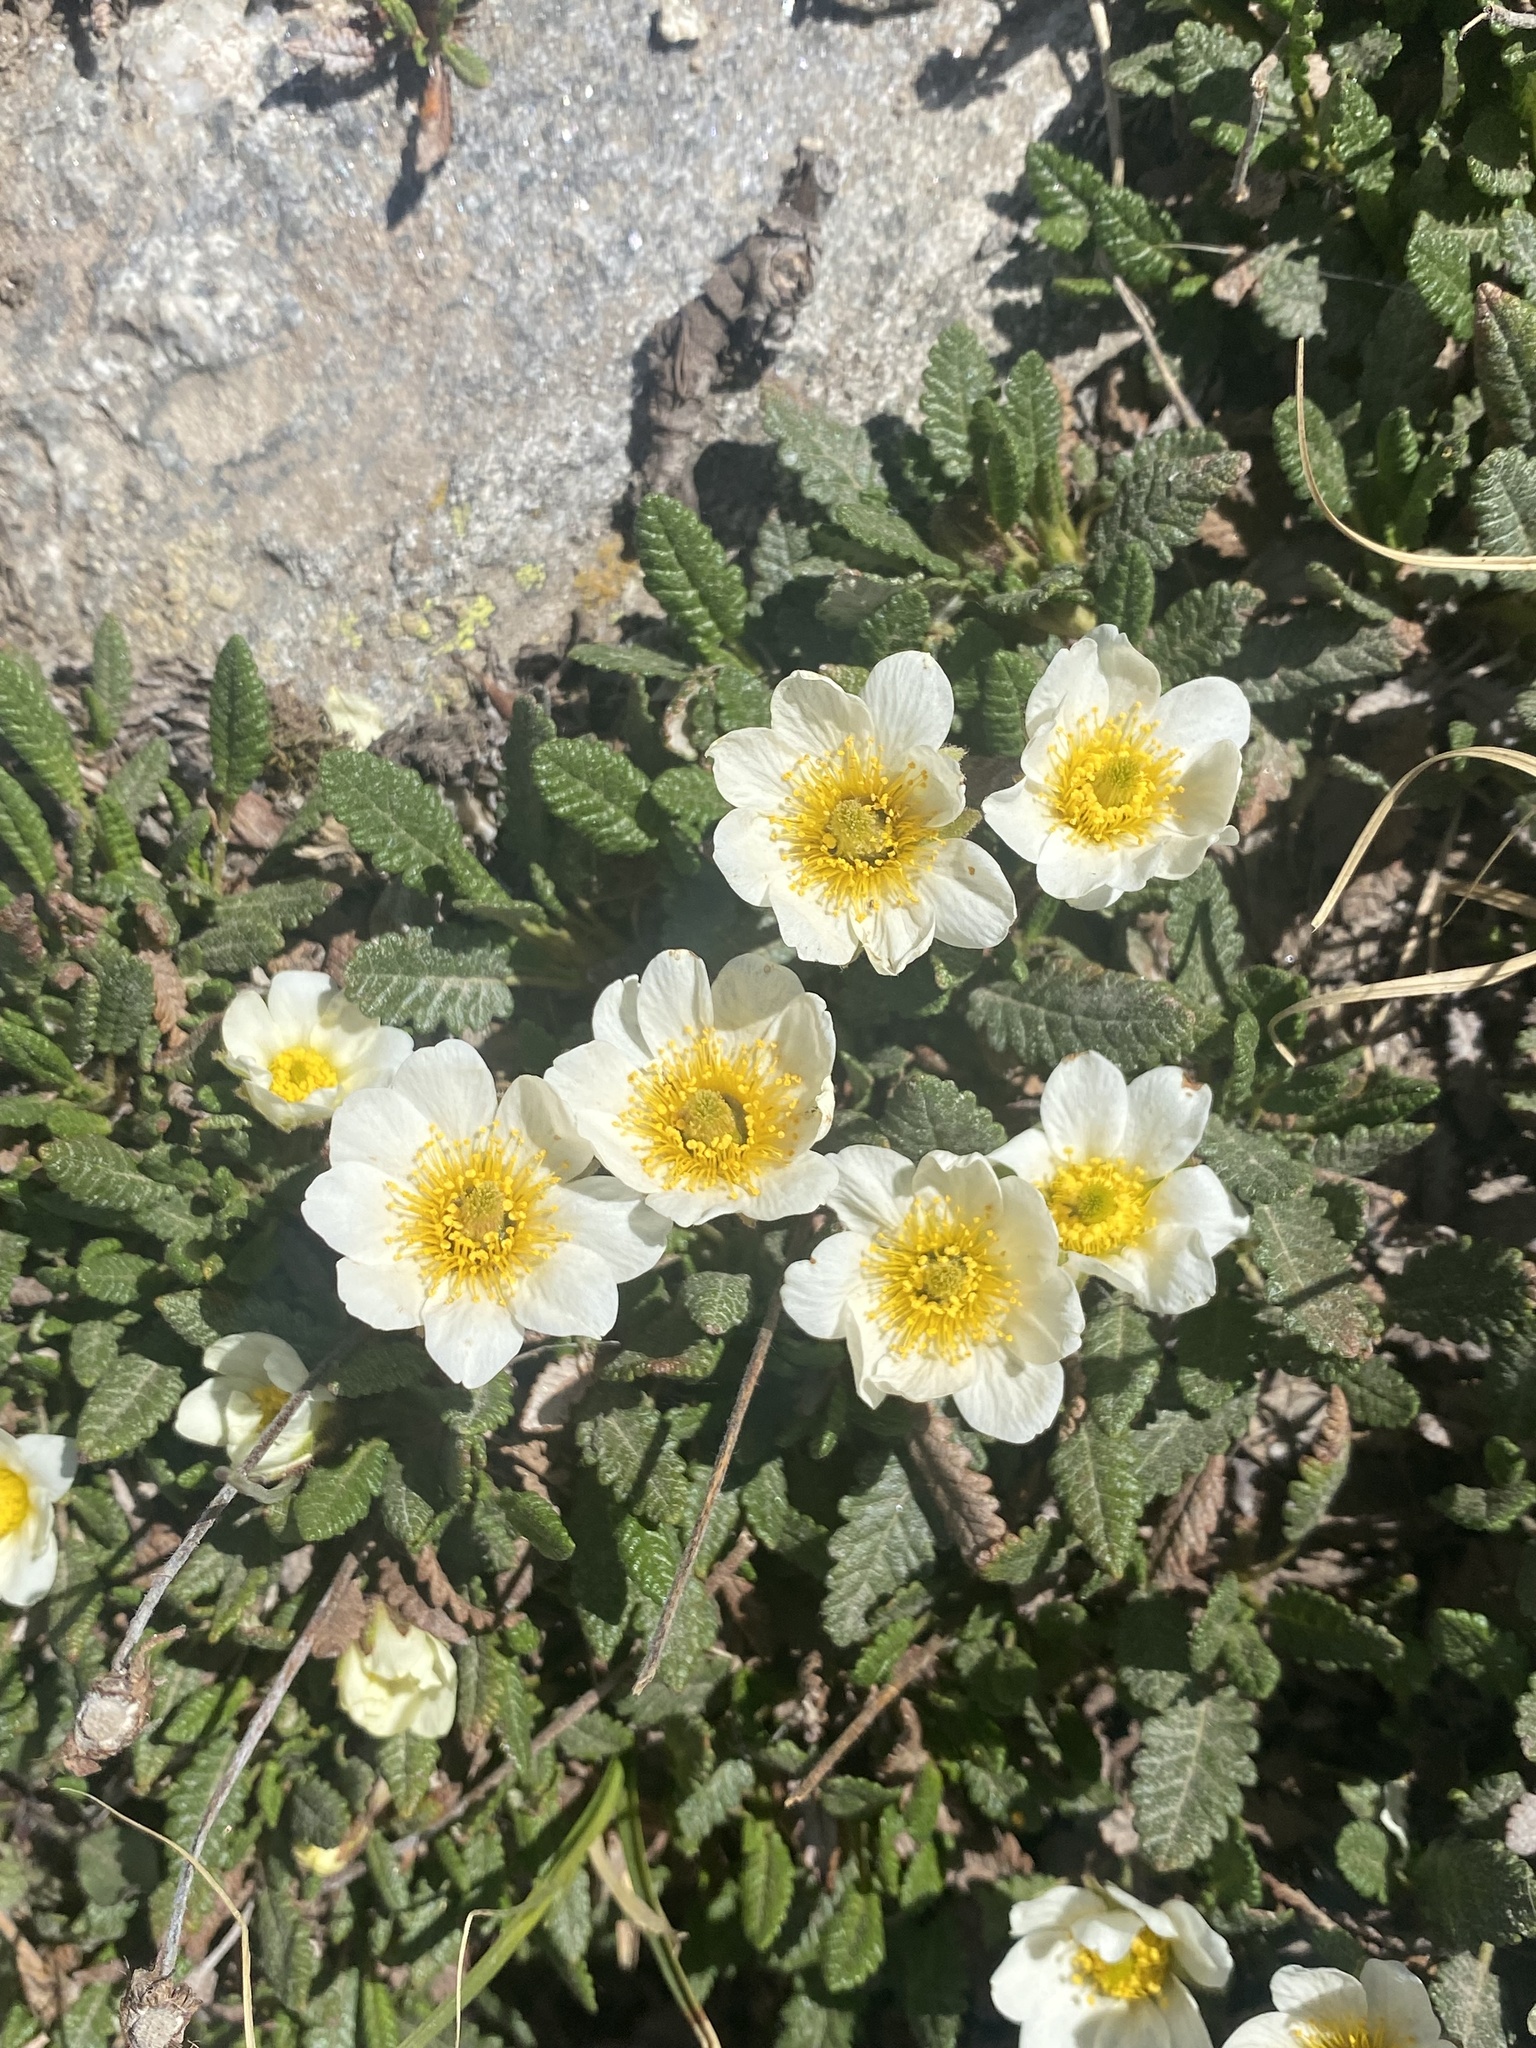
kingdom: Plantae
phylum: Tracheophyta
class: Magnoliopsida
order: Rosales
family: Rosaceae
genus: Dryas
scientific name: Dryas octopetala
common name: Eight-petal mountain-avens
